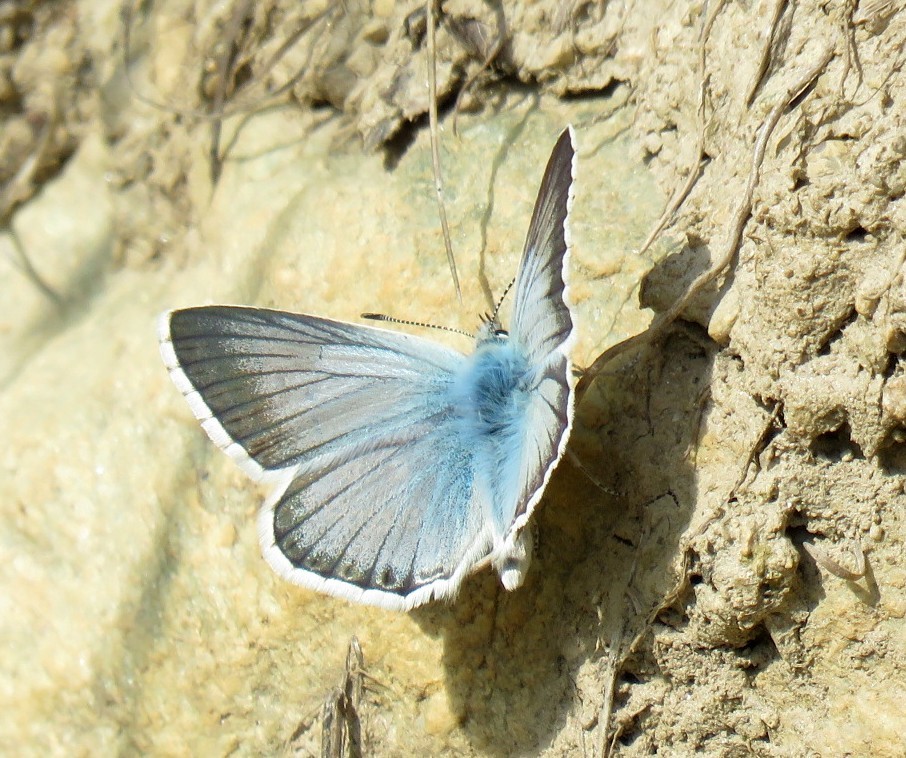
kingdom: Animalia
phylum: Arthropoda
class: Insecta
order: Lepidoptera
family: Lycaenidae
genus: Lysandra
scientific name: Lysandra coridon
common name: Chalkhill blue
